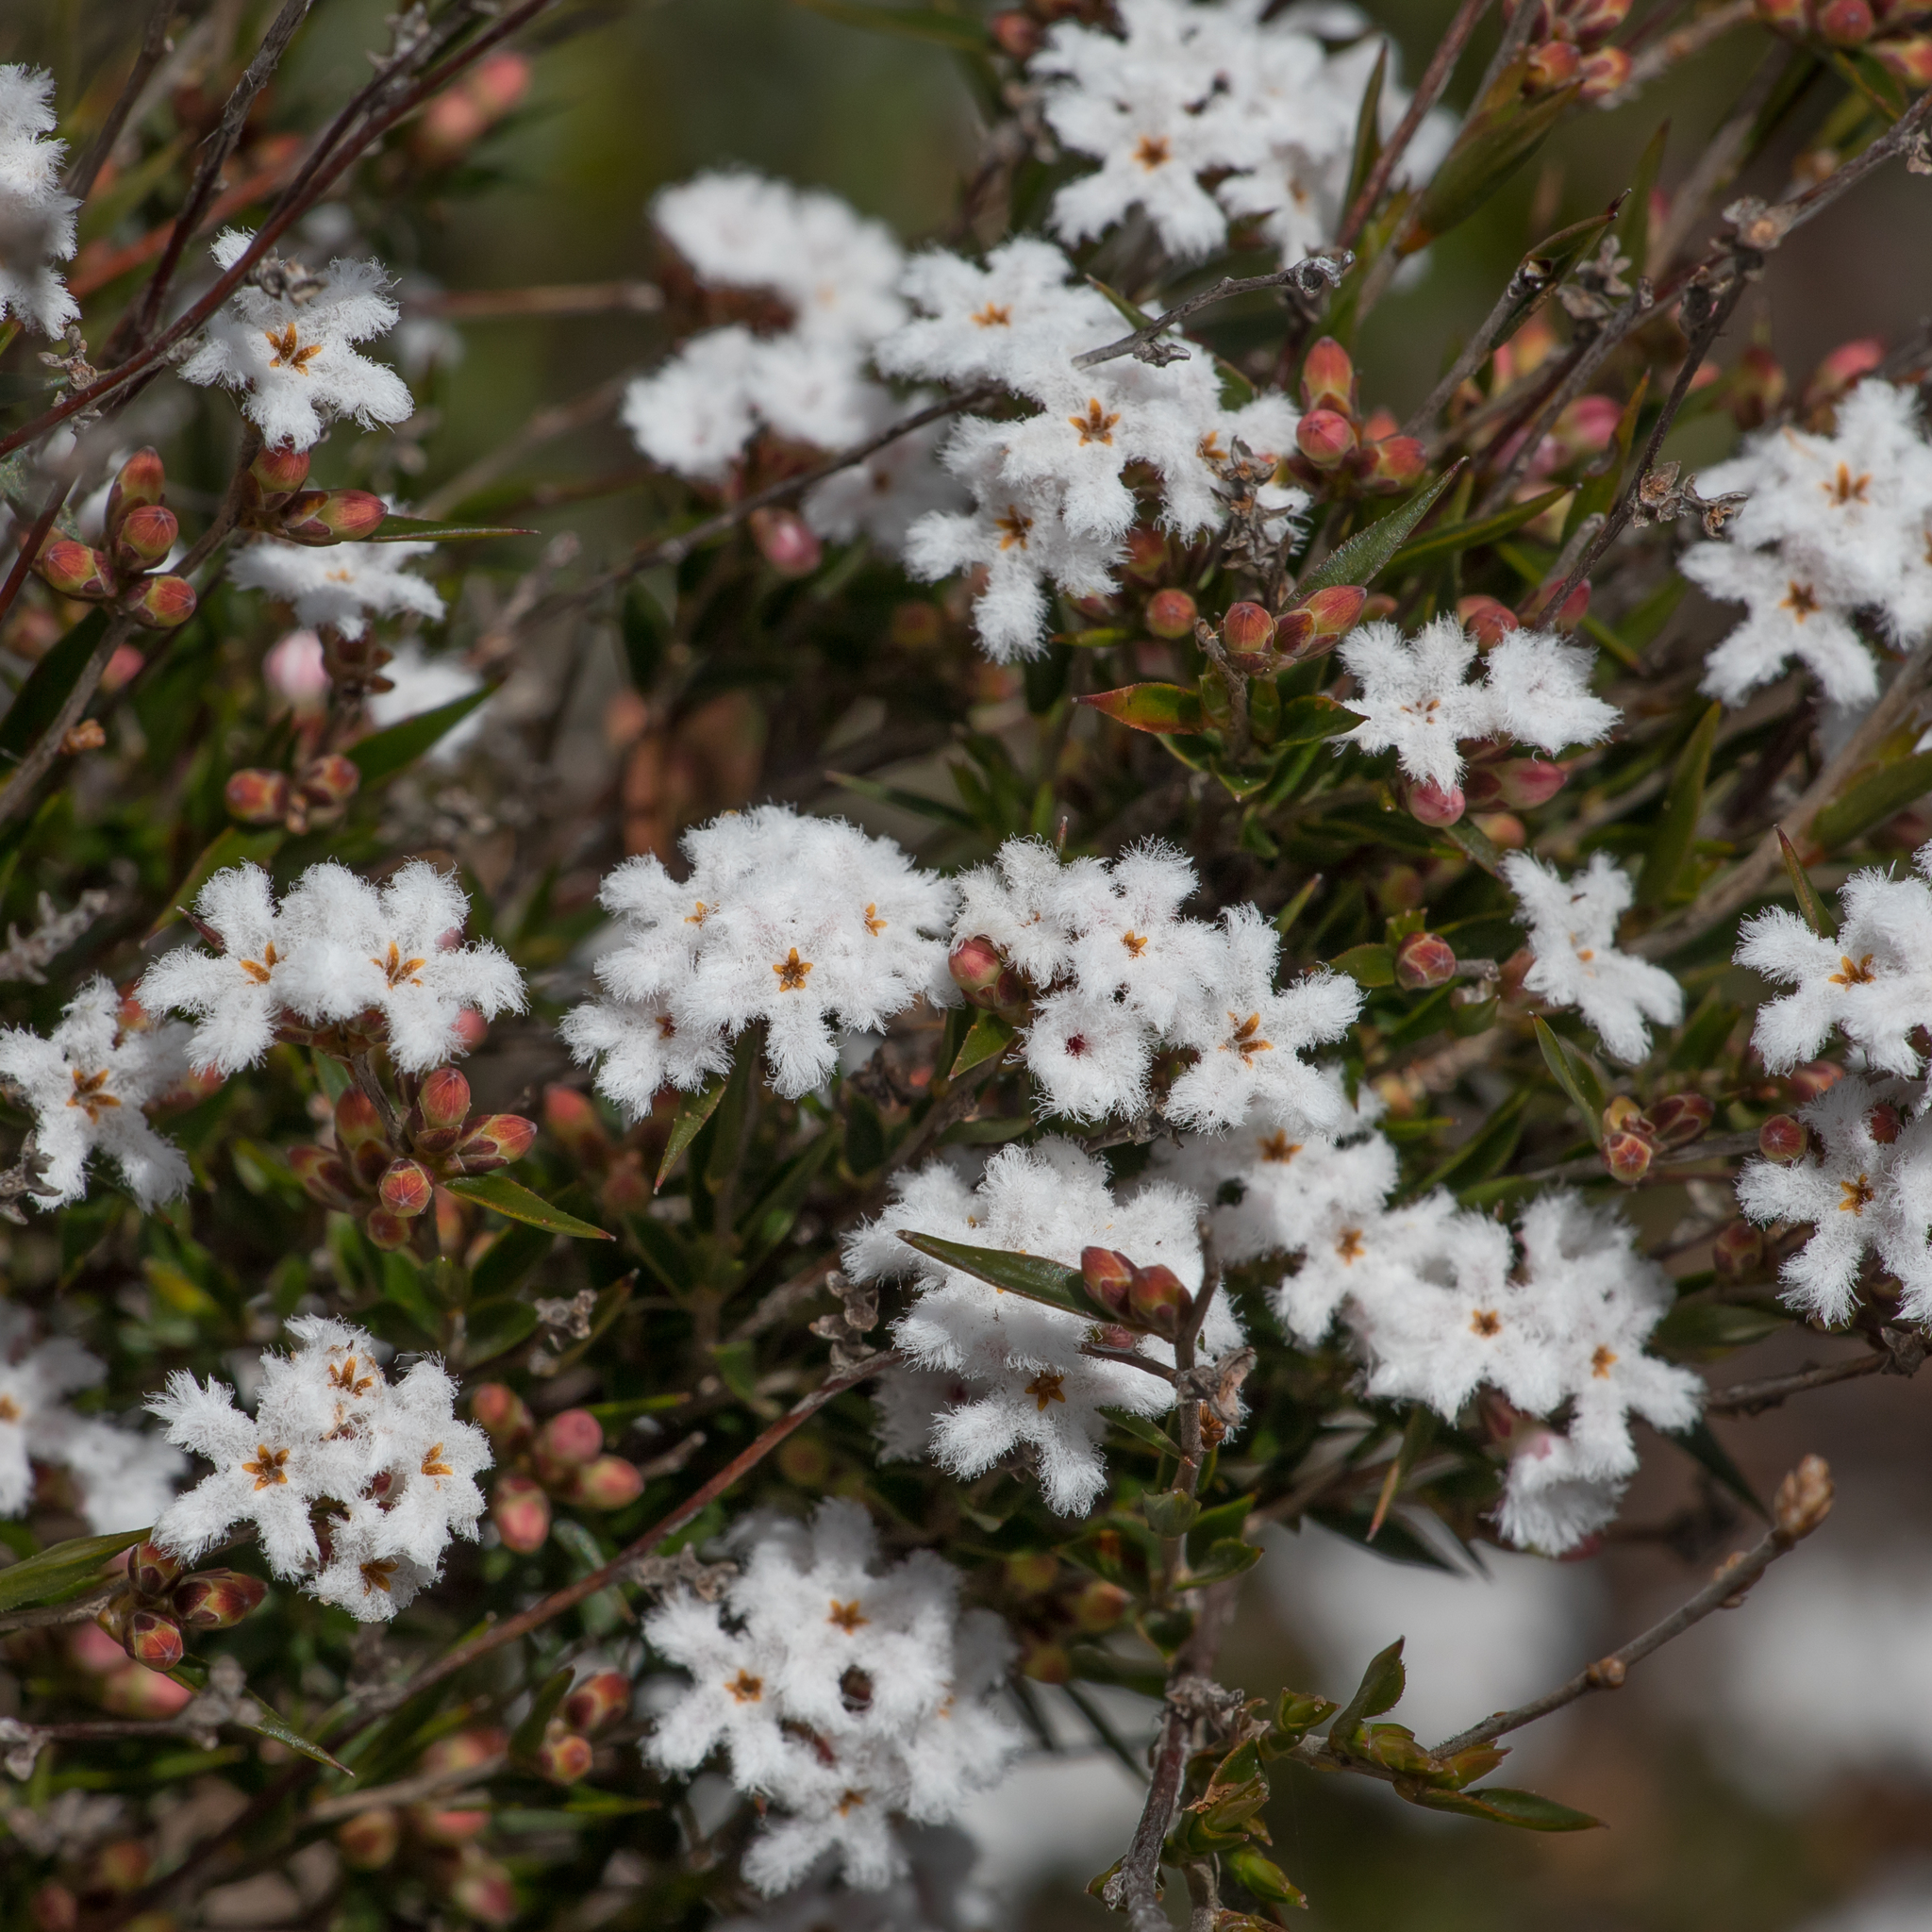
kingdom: Plantae
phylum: Tracheophyta
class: Magnoliopsida
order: Ericales
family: Ericaceae
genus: Leucopogon
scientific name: Leucopogon virgatus
